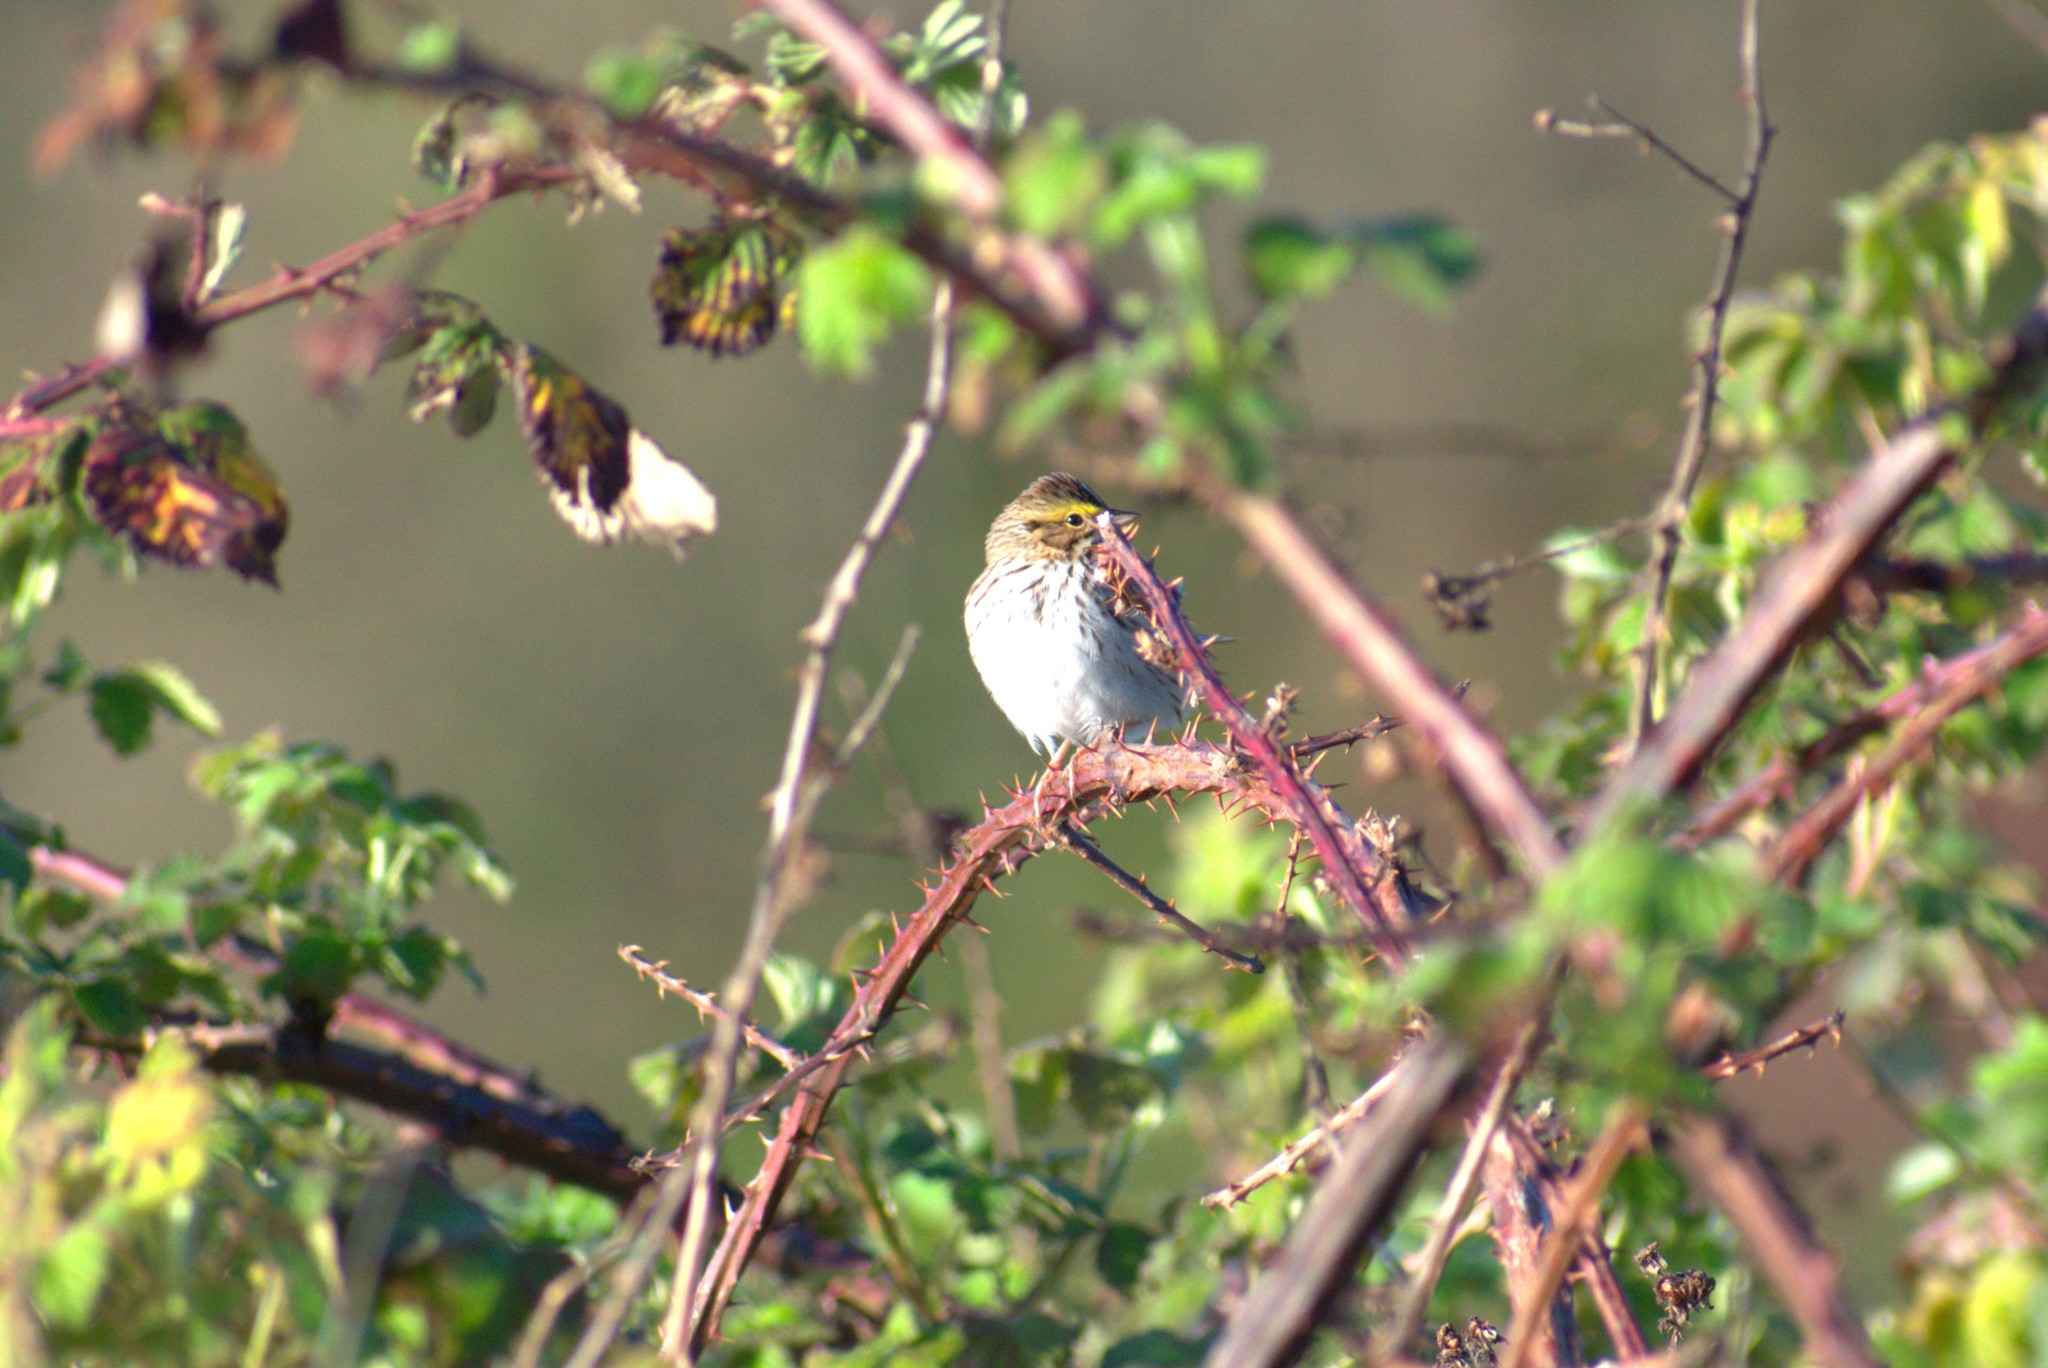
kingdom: Animalia
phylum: Chordata
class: Aves
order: Passeriformes
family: Passerellidae
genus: Passerculus
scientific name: Passerculus sandwichensis
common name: Savannah sparrow
